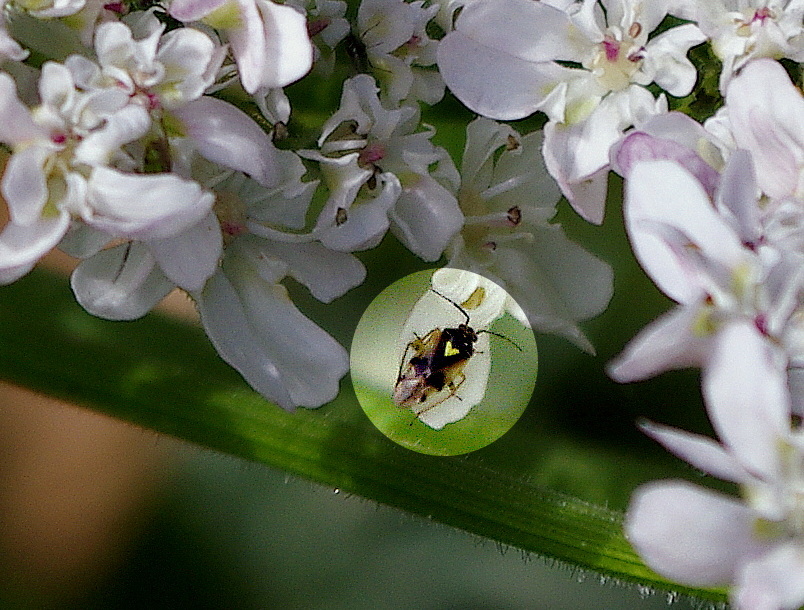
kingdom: Animalia
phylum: Arthropoda
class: Insecta
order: Hemiptera
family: Miridae
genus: Orthops
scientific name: Orthops basalis
